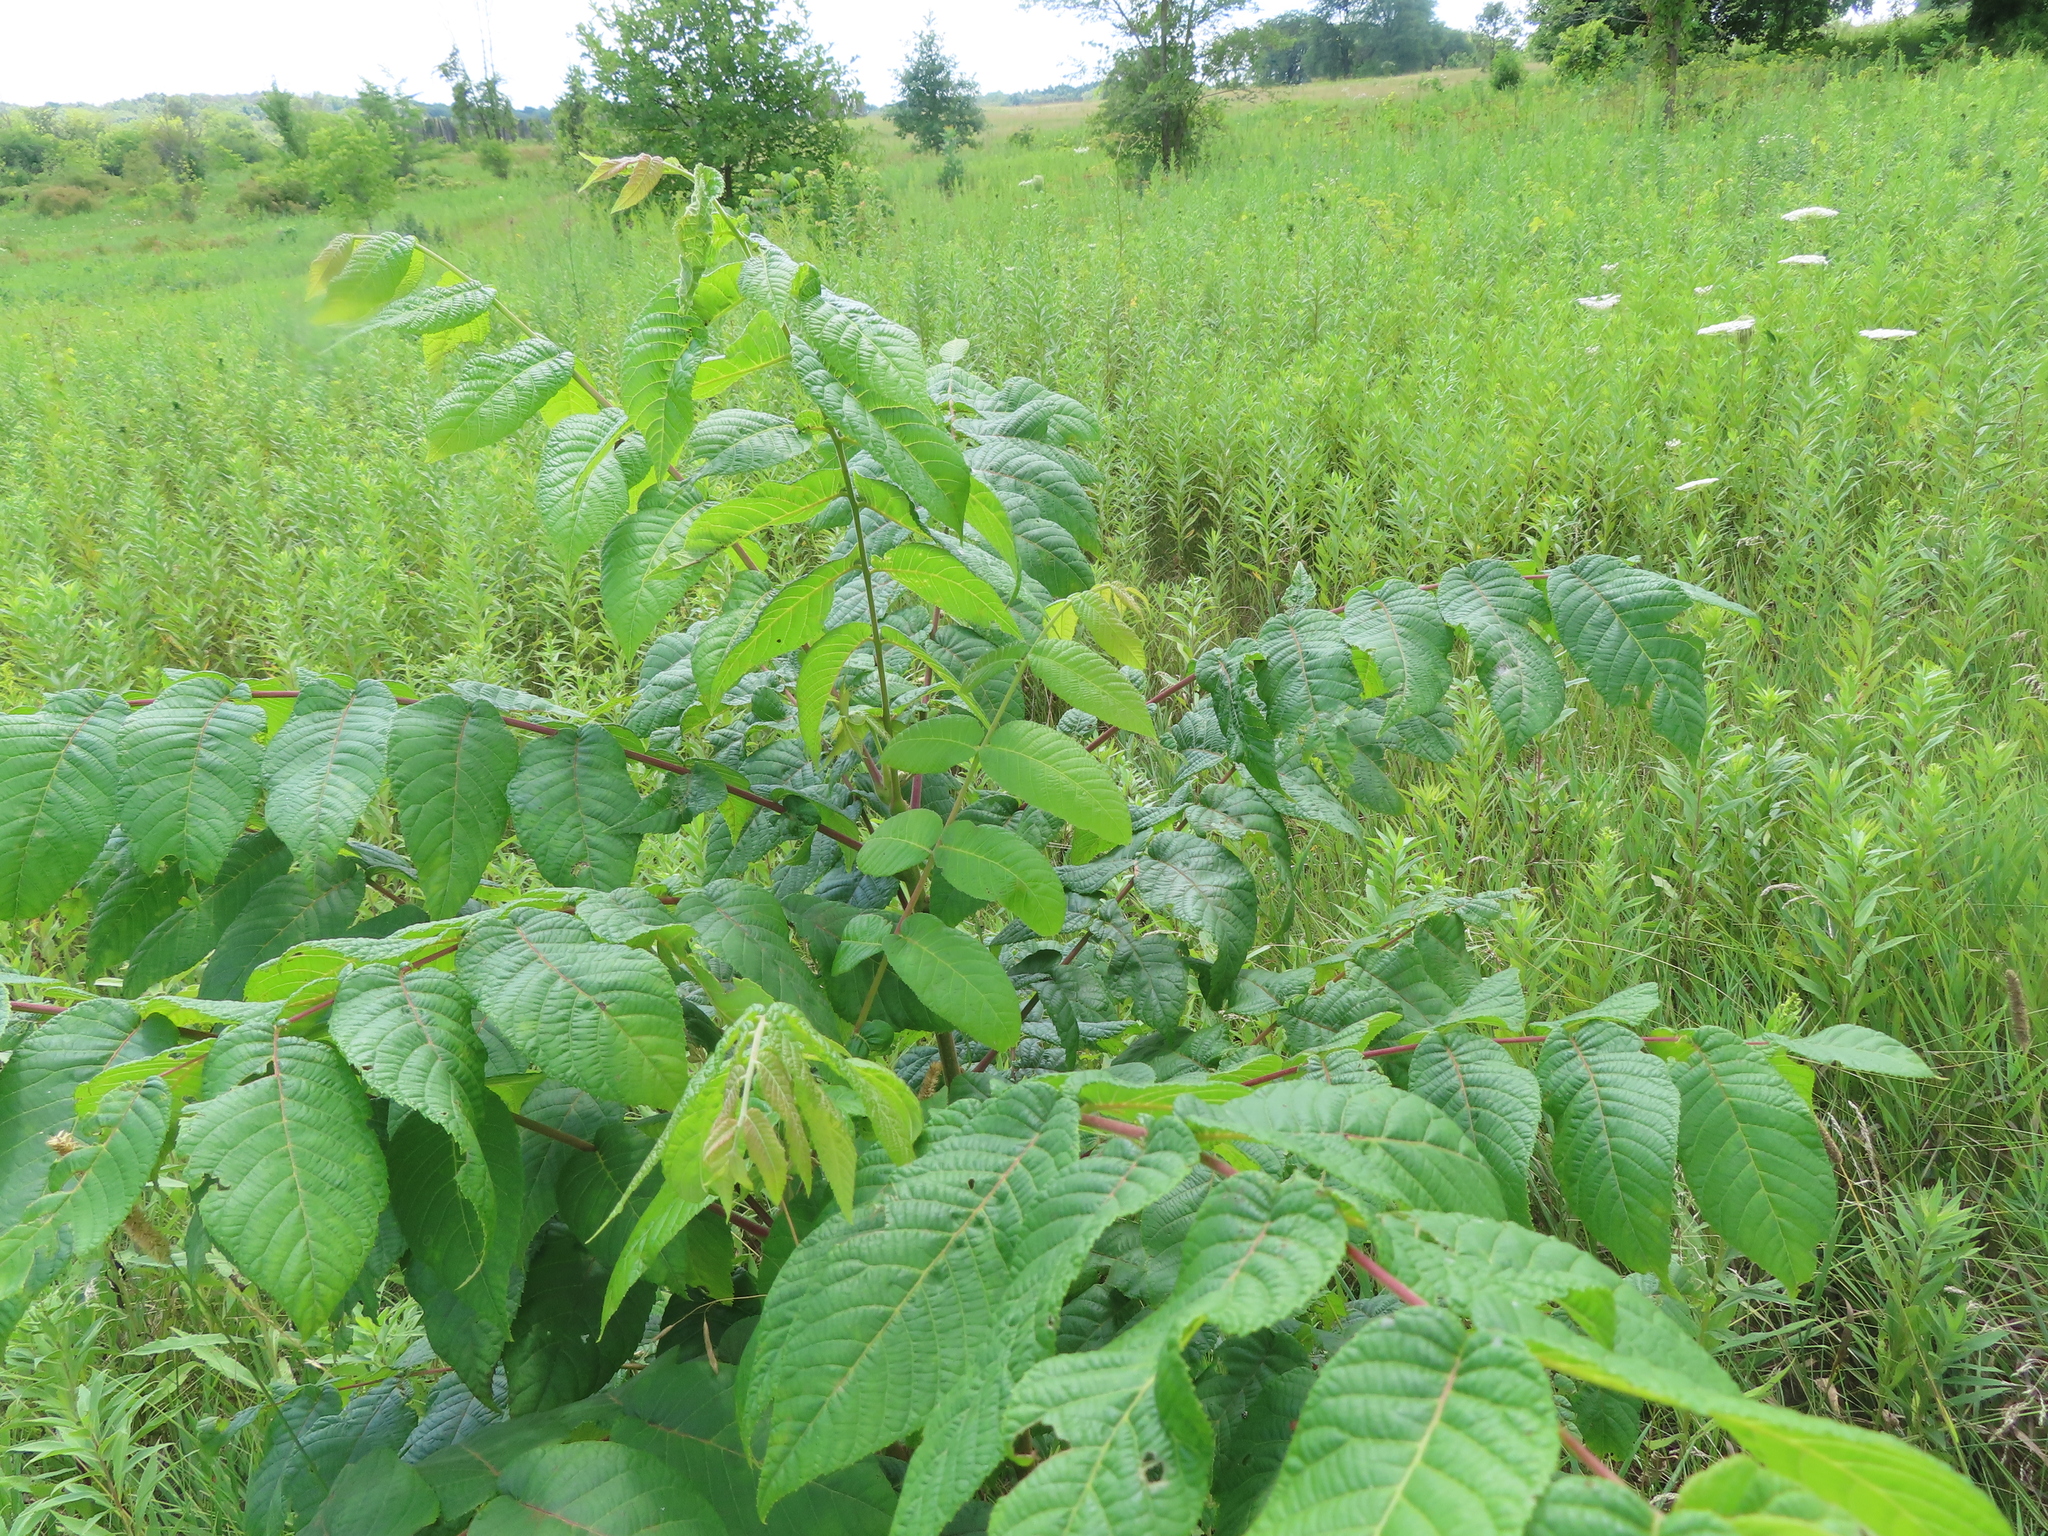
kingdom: Plantae
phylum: Tracheophyta
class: Magnoliopsida
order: Fagales
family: Juglandaceae
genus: Juglans
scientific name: Juglans nigra
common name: Black walnut
